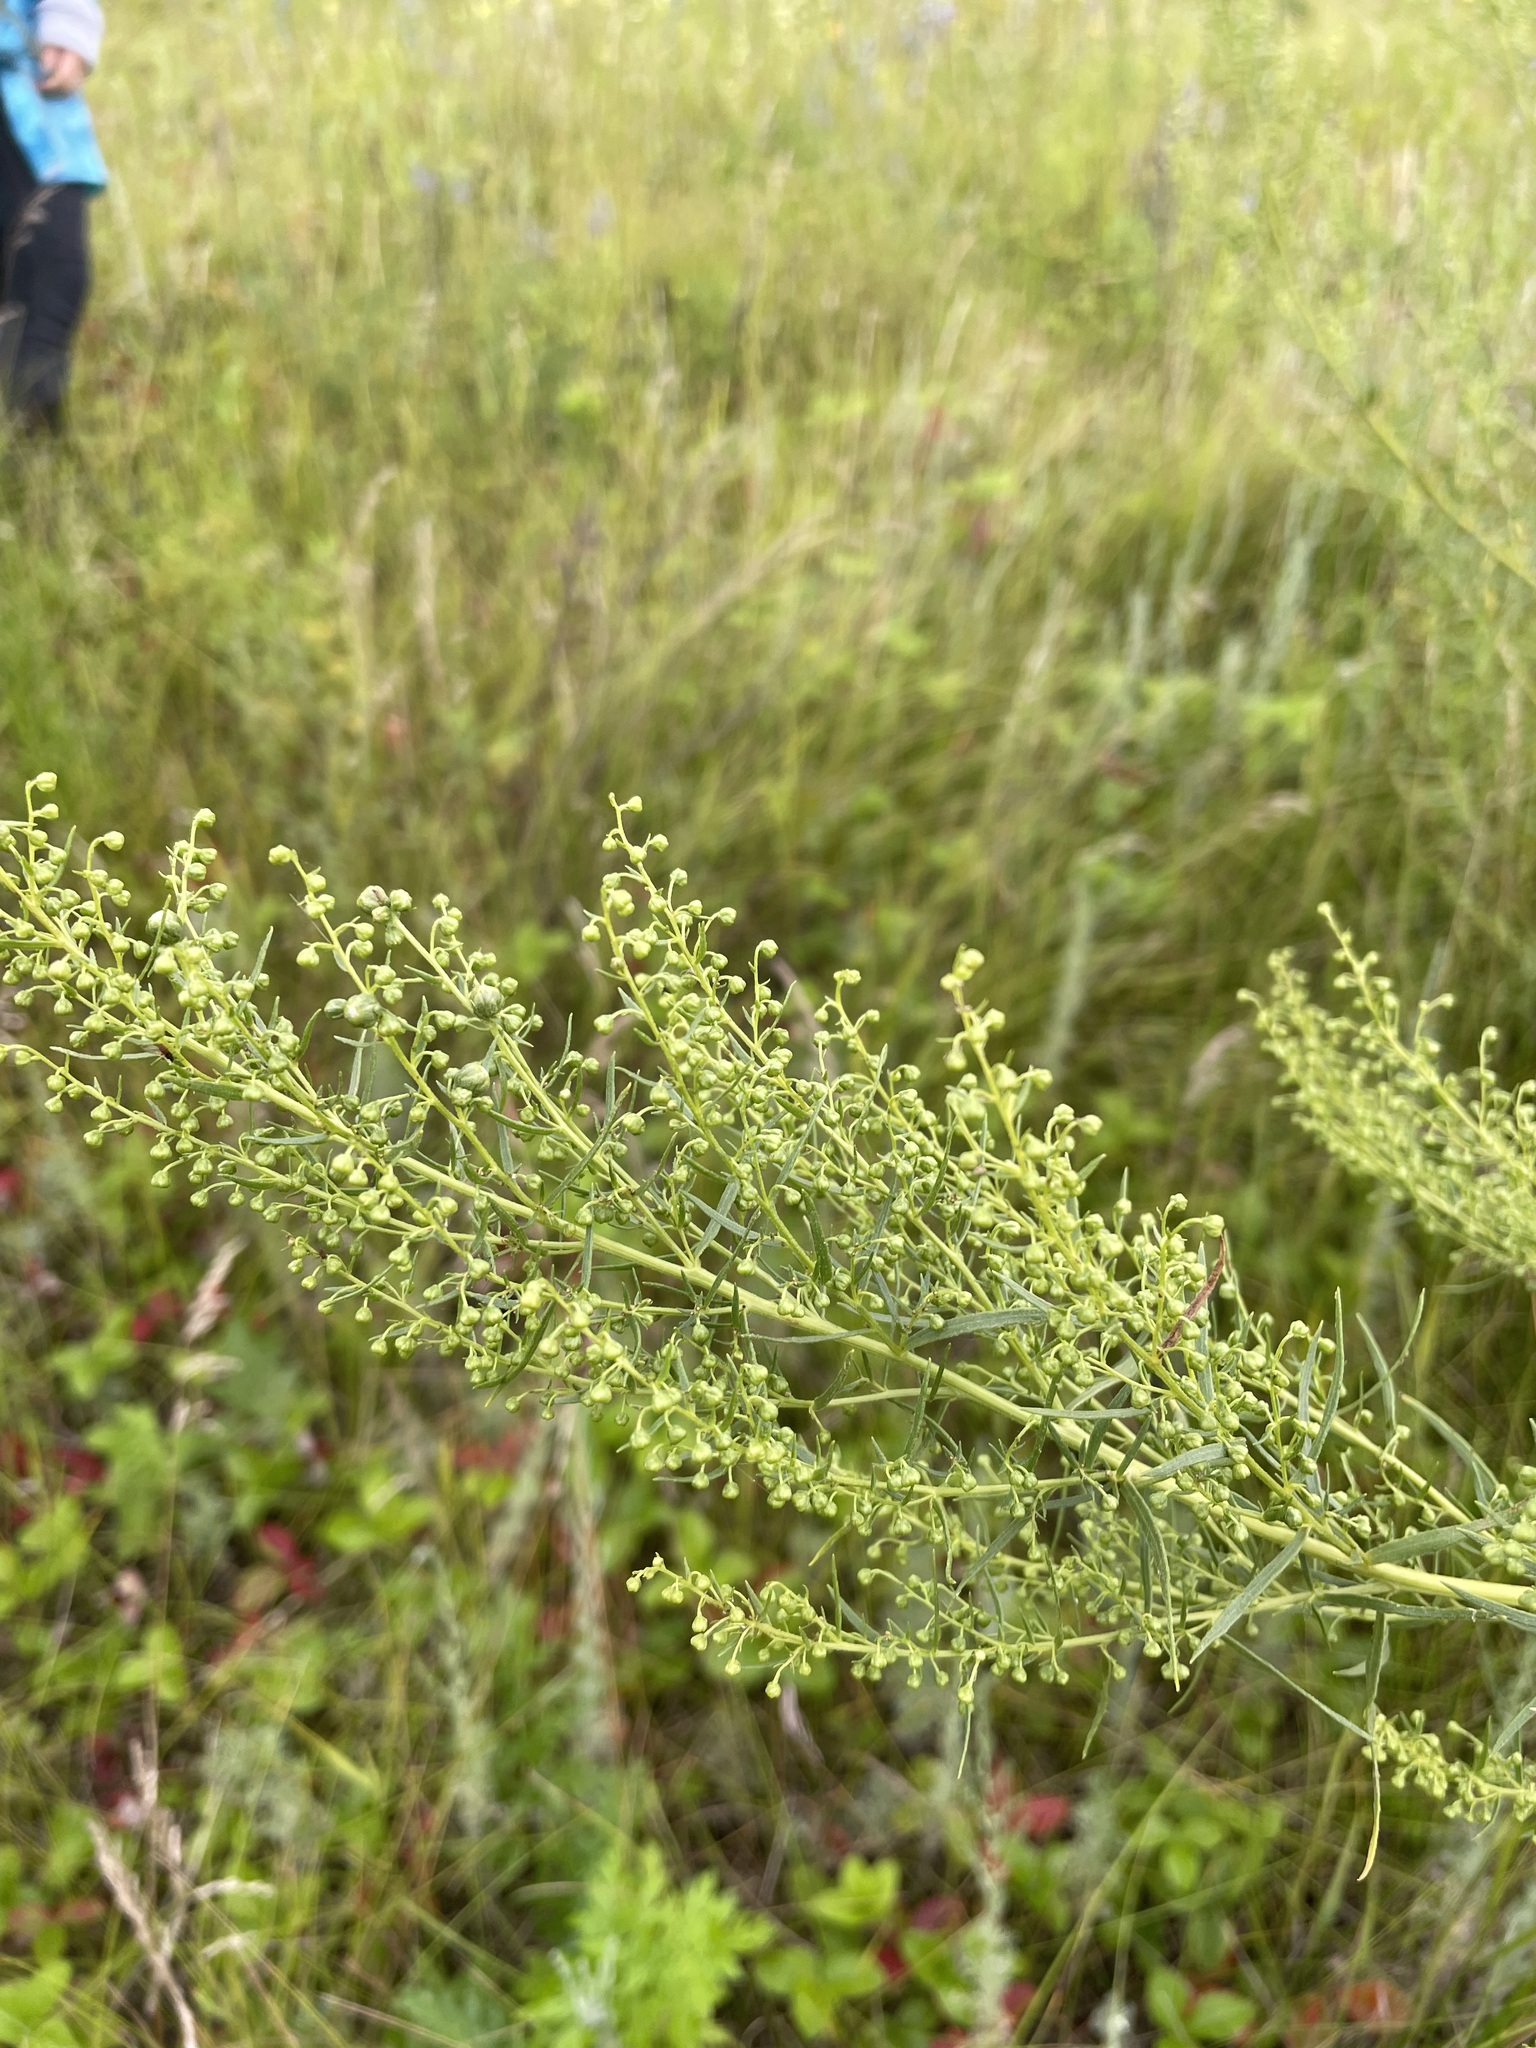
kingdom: Plantae
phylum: Tracheophyta
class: Magnoliopsida
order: Asterales
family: Asteraceae
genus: Artemisia
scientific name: Artemisia dracunculus
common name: Tarragon
